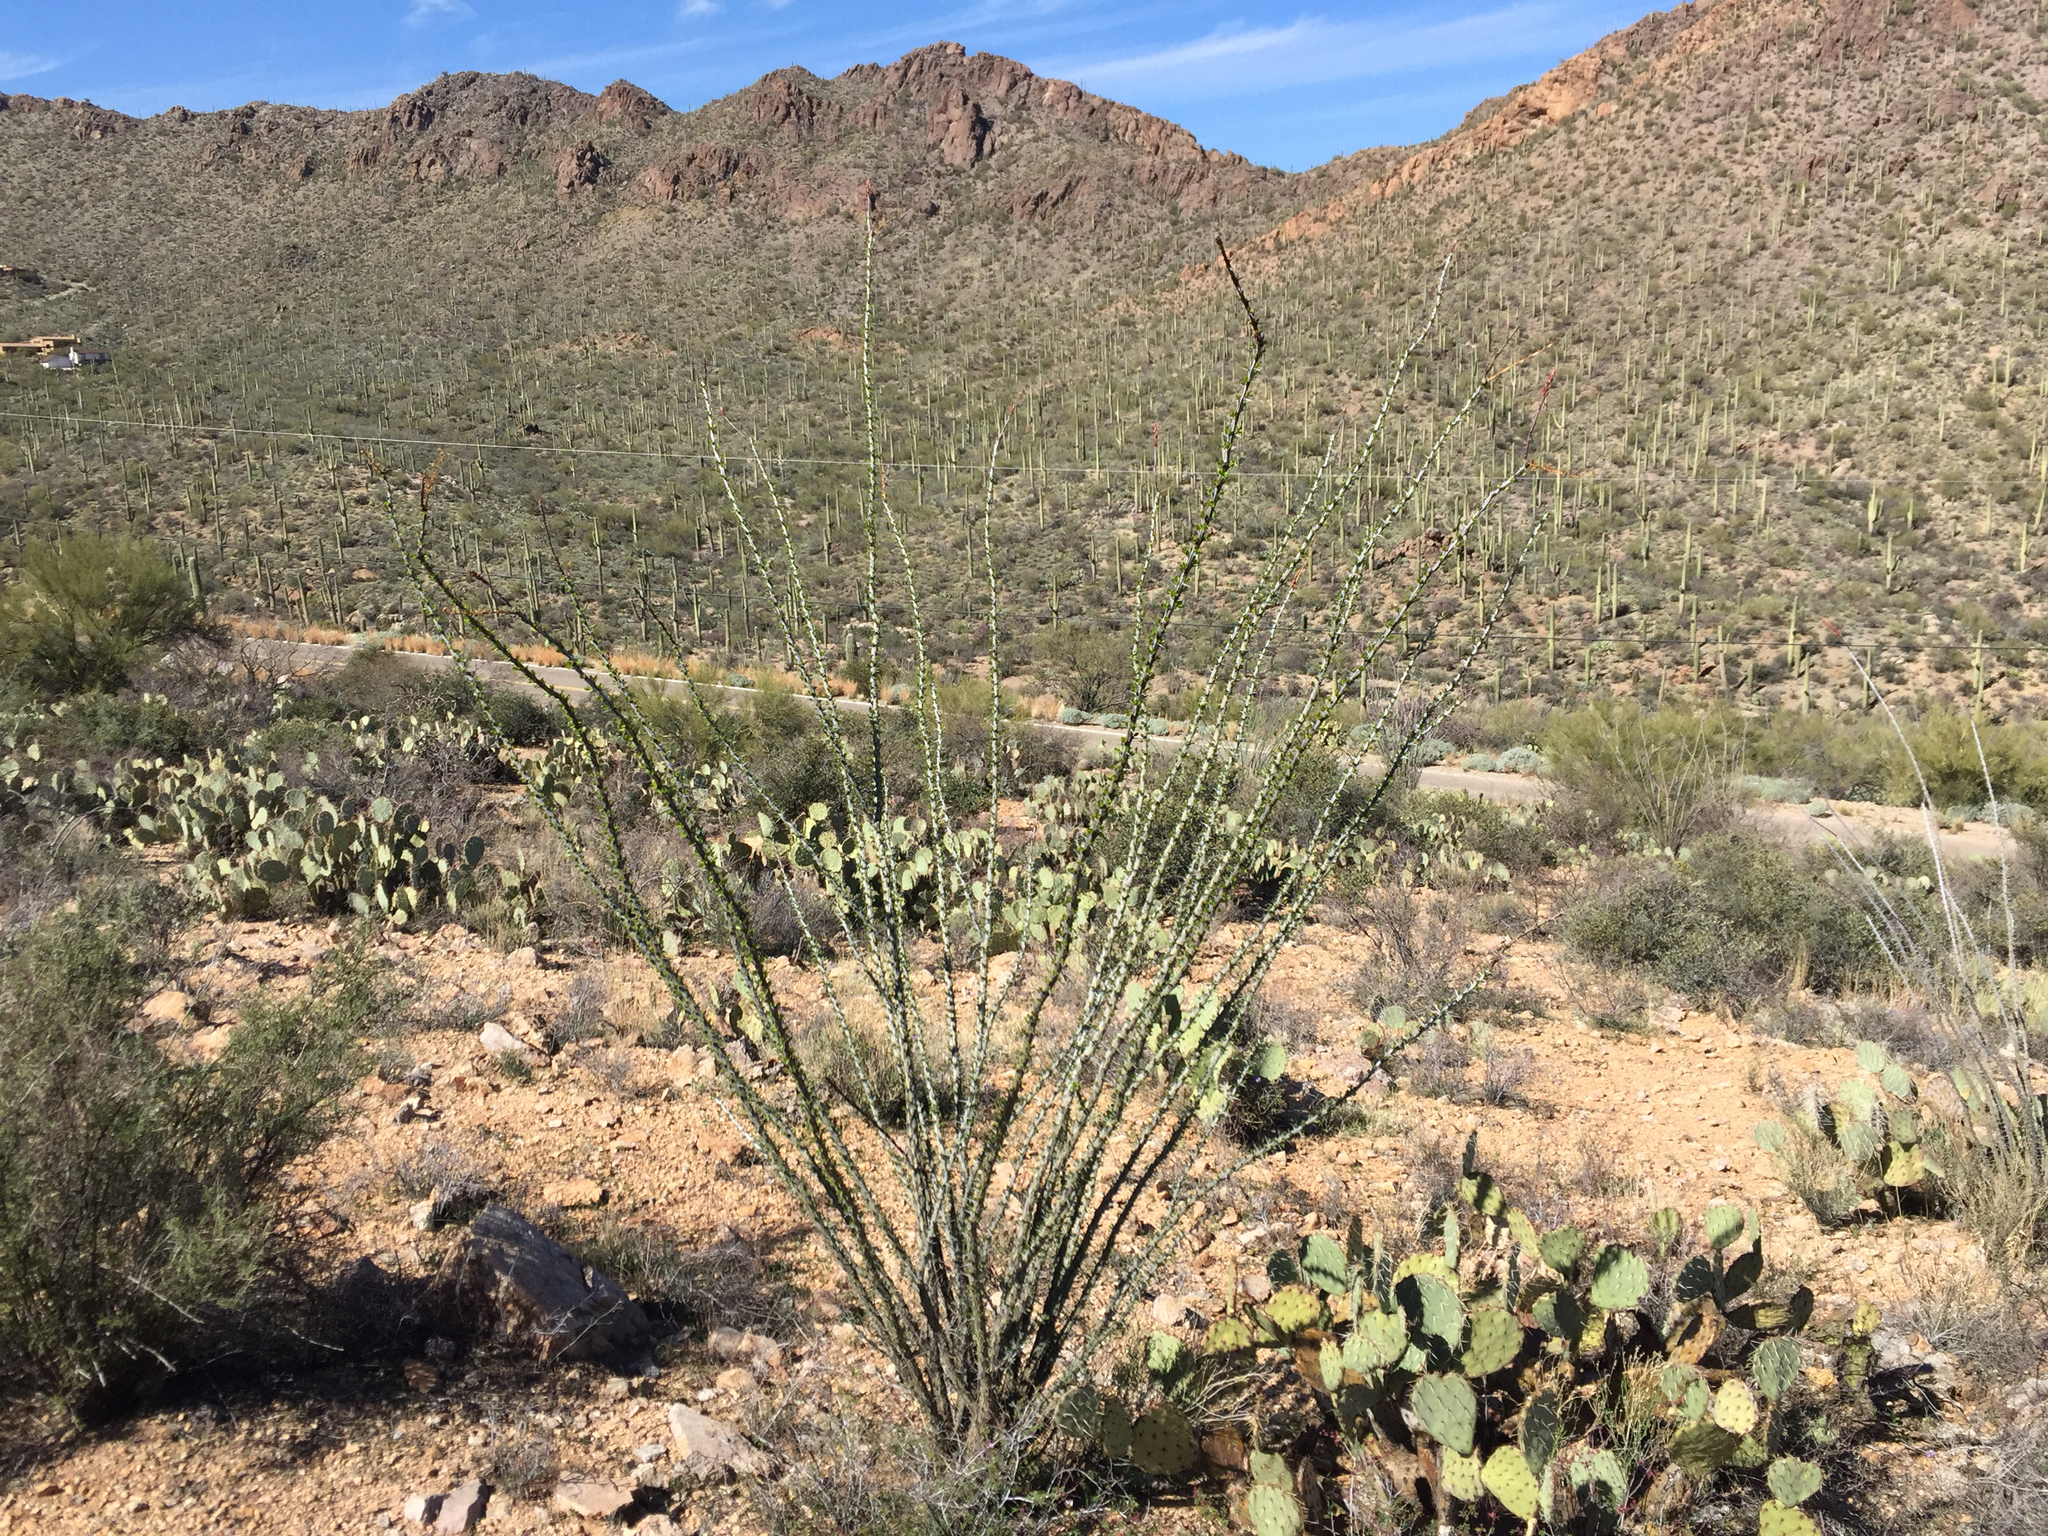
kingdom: Plantae
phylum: Tracheophyta
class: Magnoliopsida
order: Ericales
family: Fouquieriaceae
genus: Fouquieria
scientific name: Fouquieria splendens
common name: Vine-cactus
